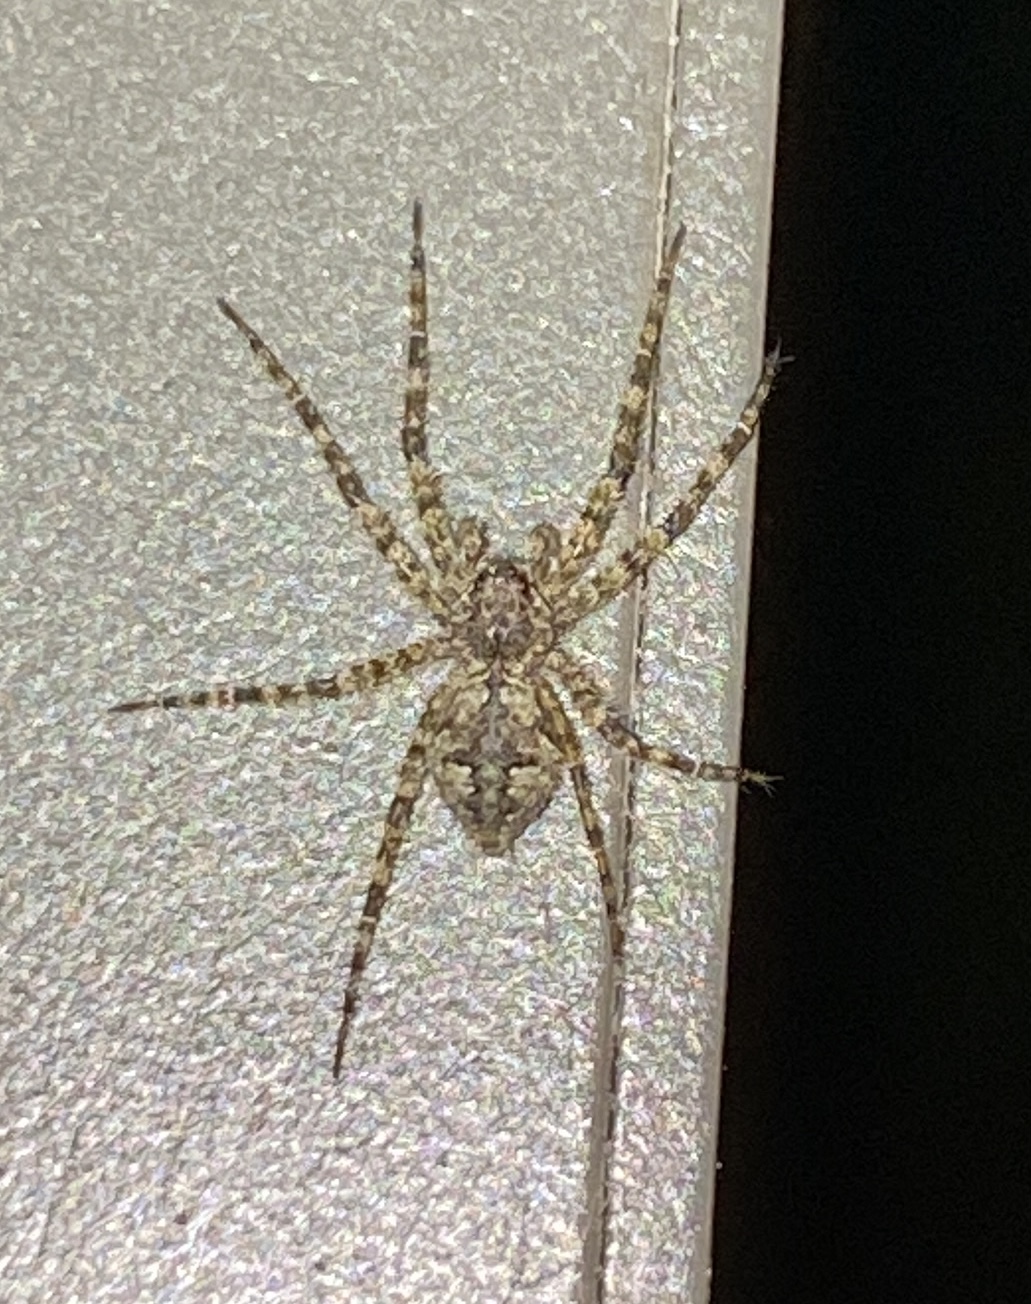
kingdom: Animalia
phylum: Arthropoda
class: Arachnida
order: Araneae
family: Pisauridae
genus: Dolomedes
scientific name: Dolomedes albineus
